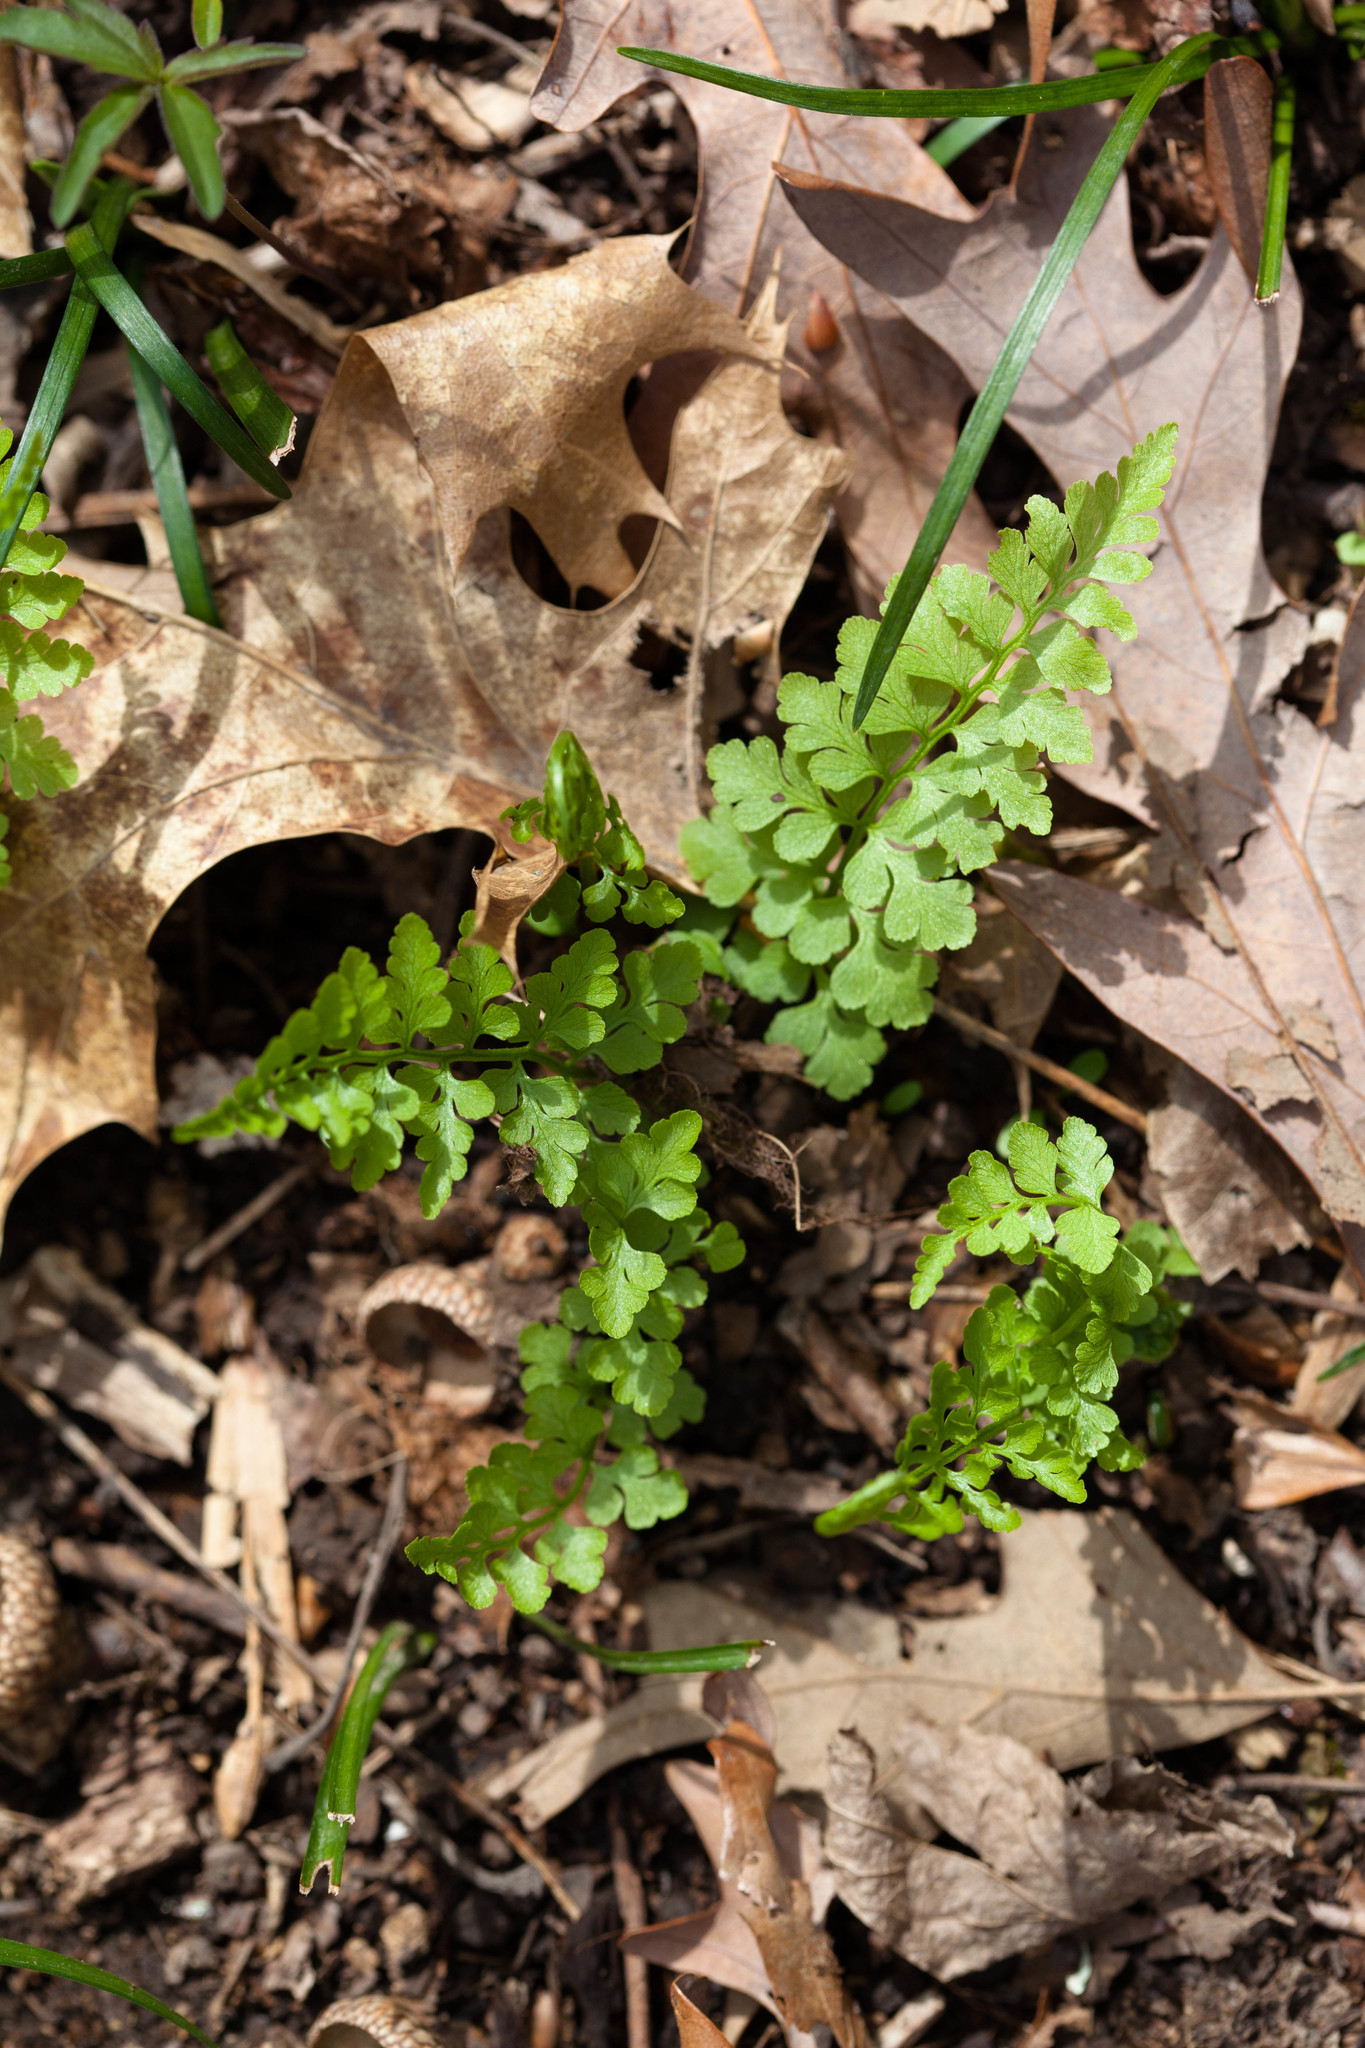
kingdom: Plantae
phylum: Tracheophyta
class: Polypodiopsida
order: Polypodiales
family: Cystopteridaceae
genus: Cystopteris
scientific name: Cystopteris protrusa
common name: Lowland brittle fern
